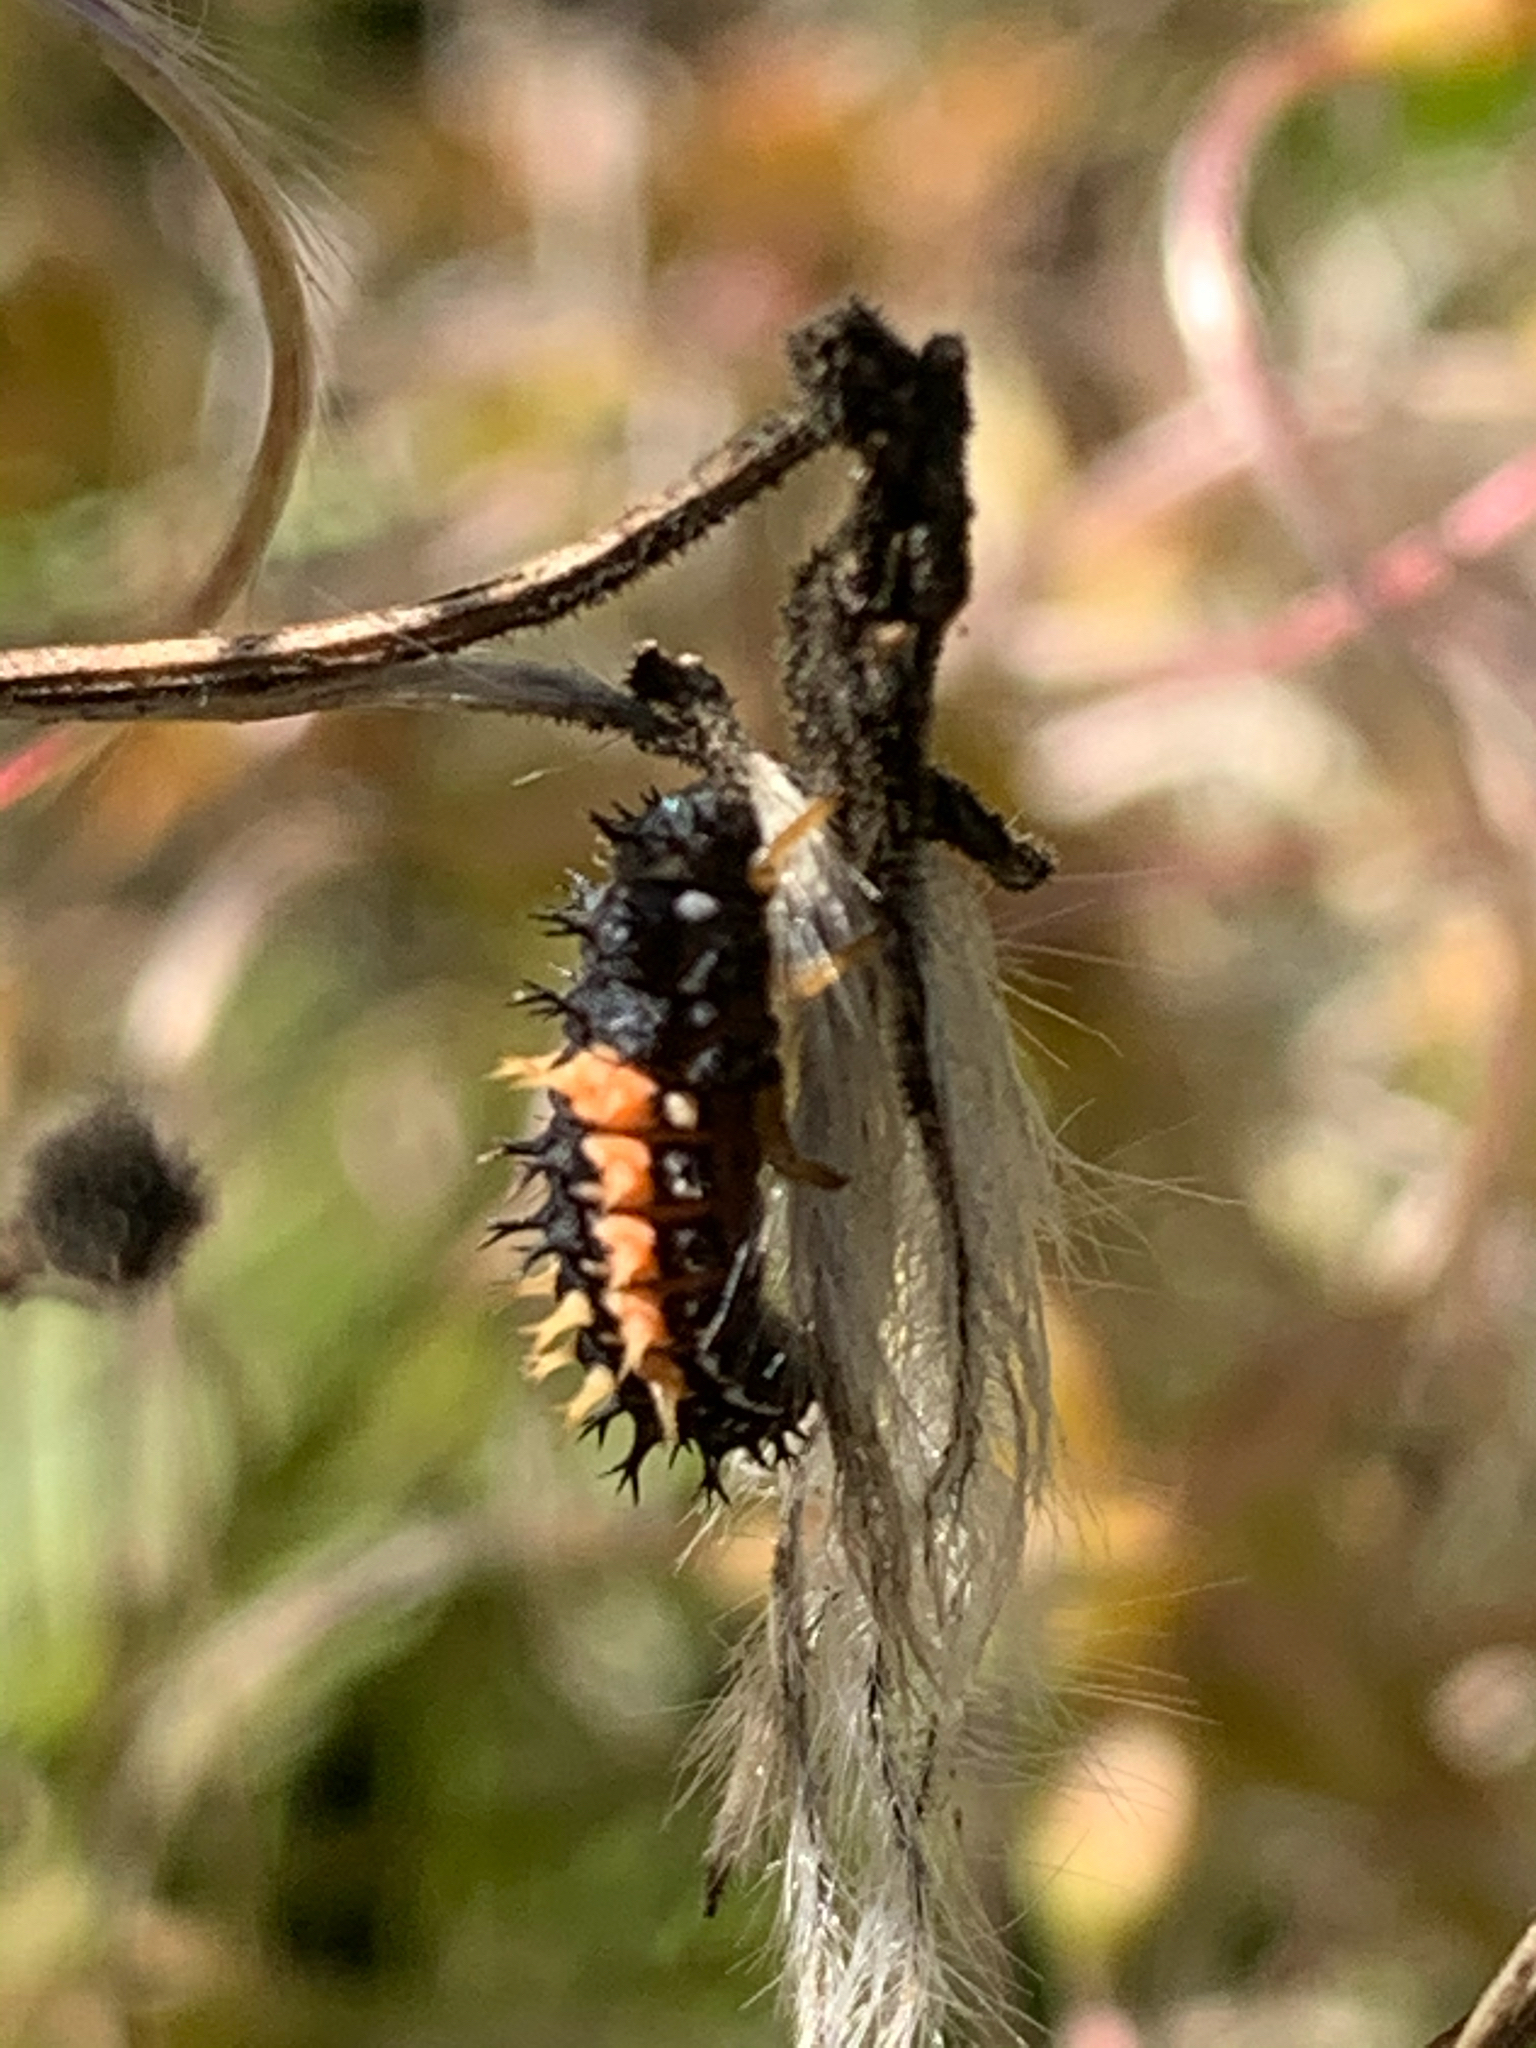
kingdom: Animalia
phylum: Arthropoda
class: Insecta
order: Coleoptera
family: Coccinellidae
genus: Harmonia
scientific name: Harmonia axyridis
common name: Harlequin ladybird
